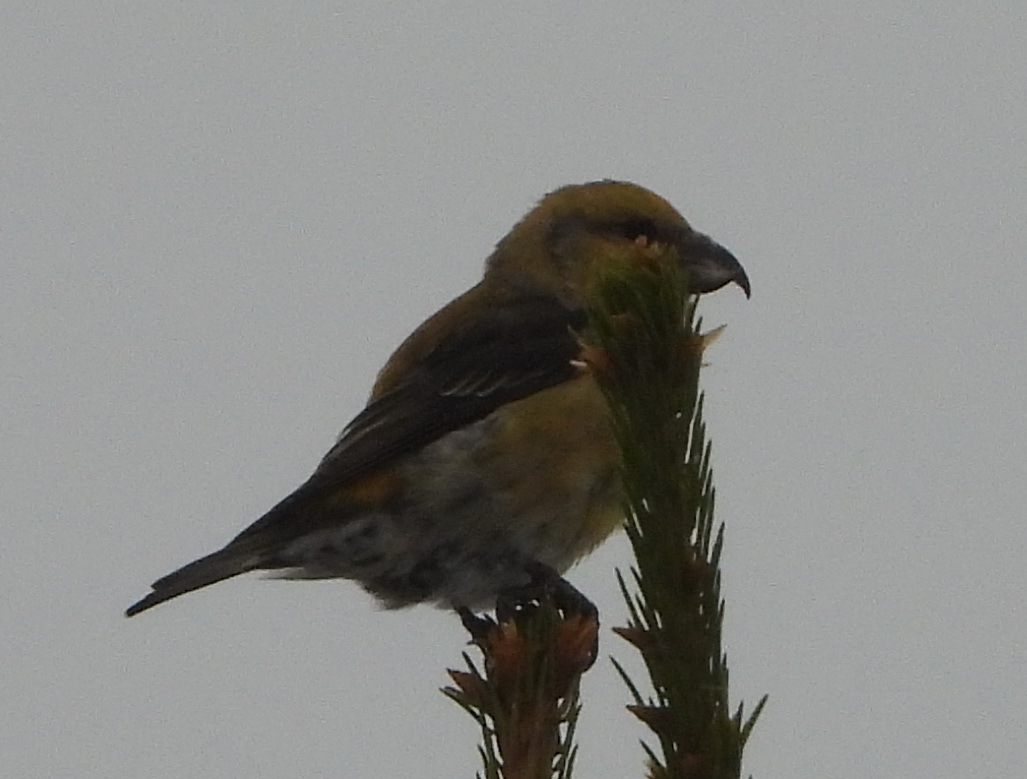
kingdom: Animalia
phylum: Chordata
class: Aves
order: Passeriformes
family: Fringillidae
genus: Loxia
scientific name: Loxia curvirostra
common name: Red crossbill
